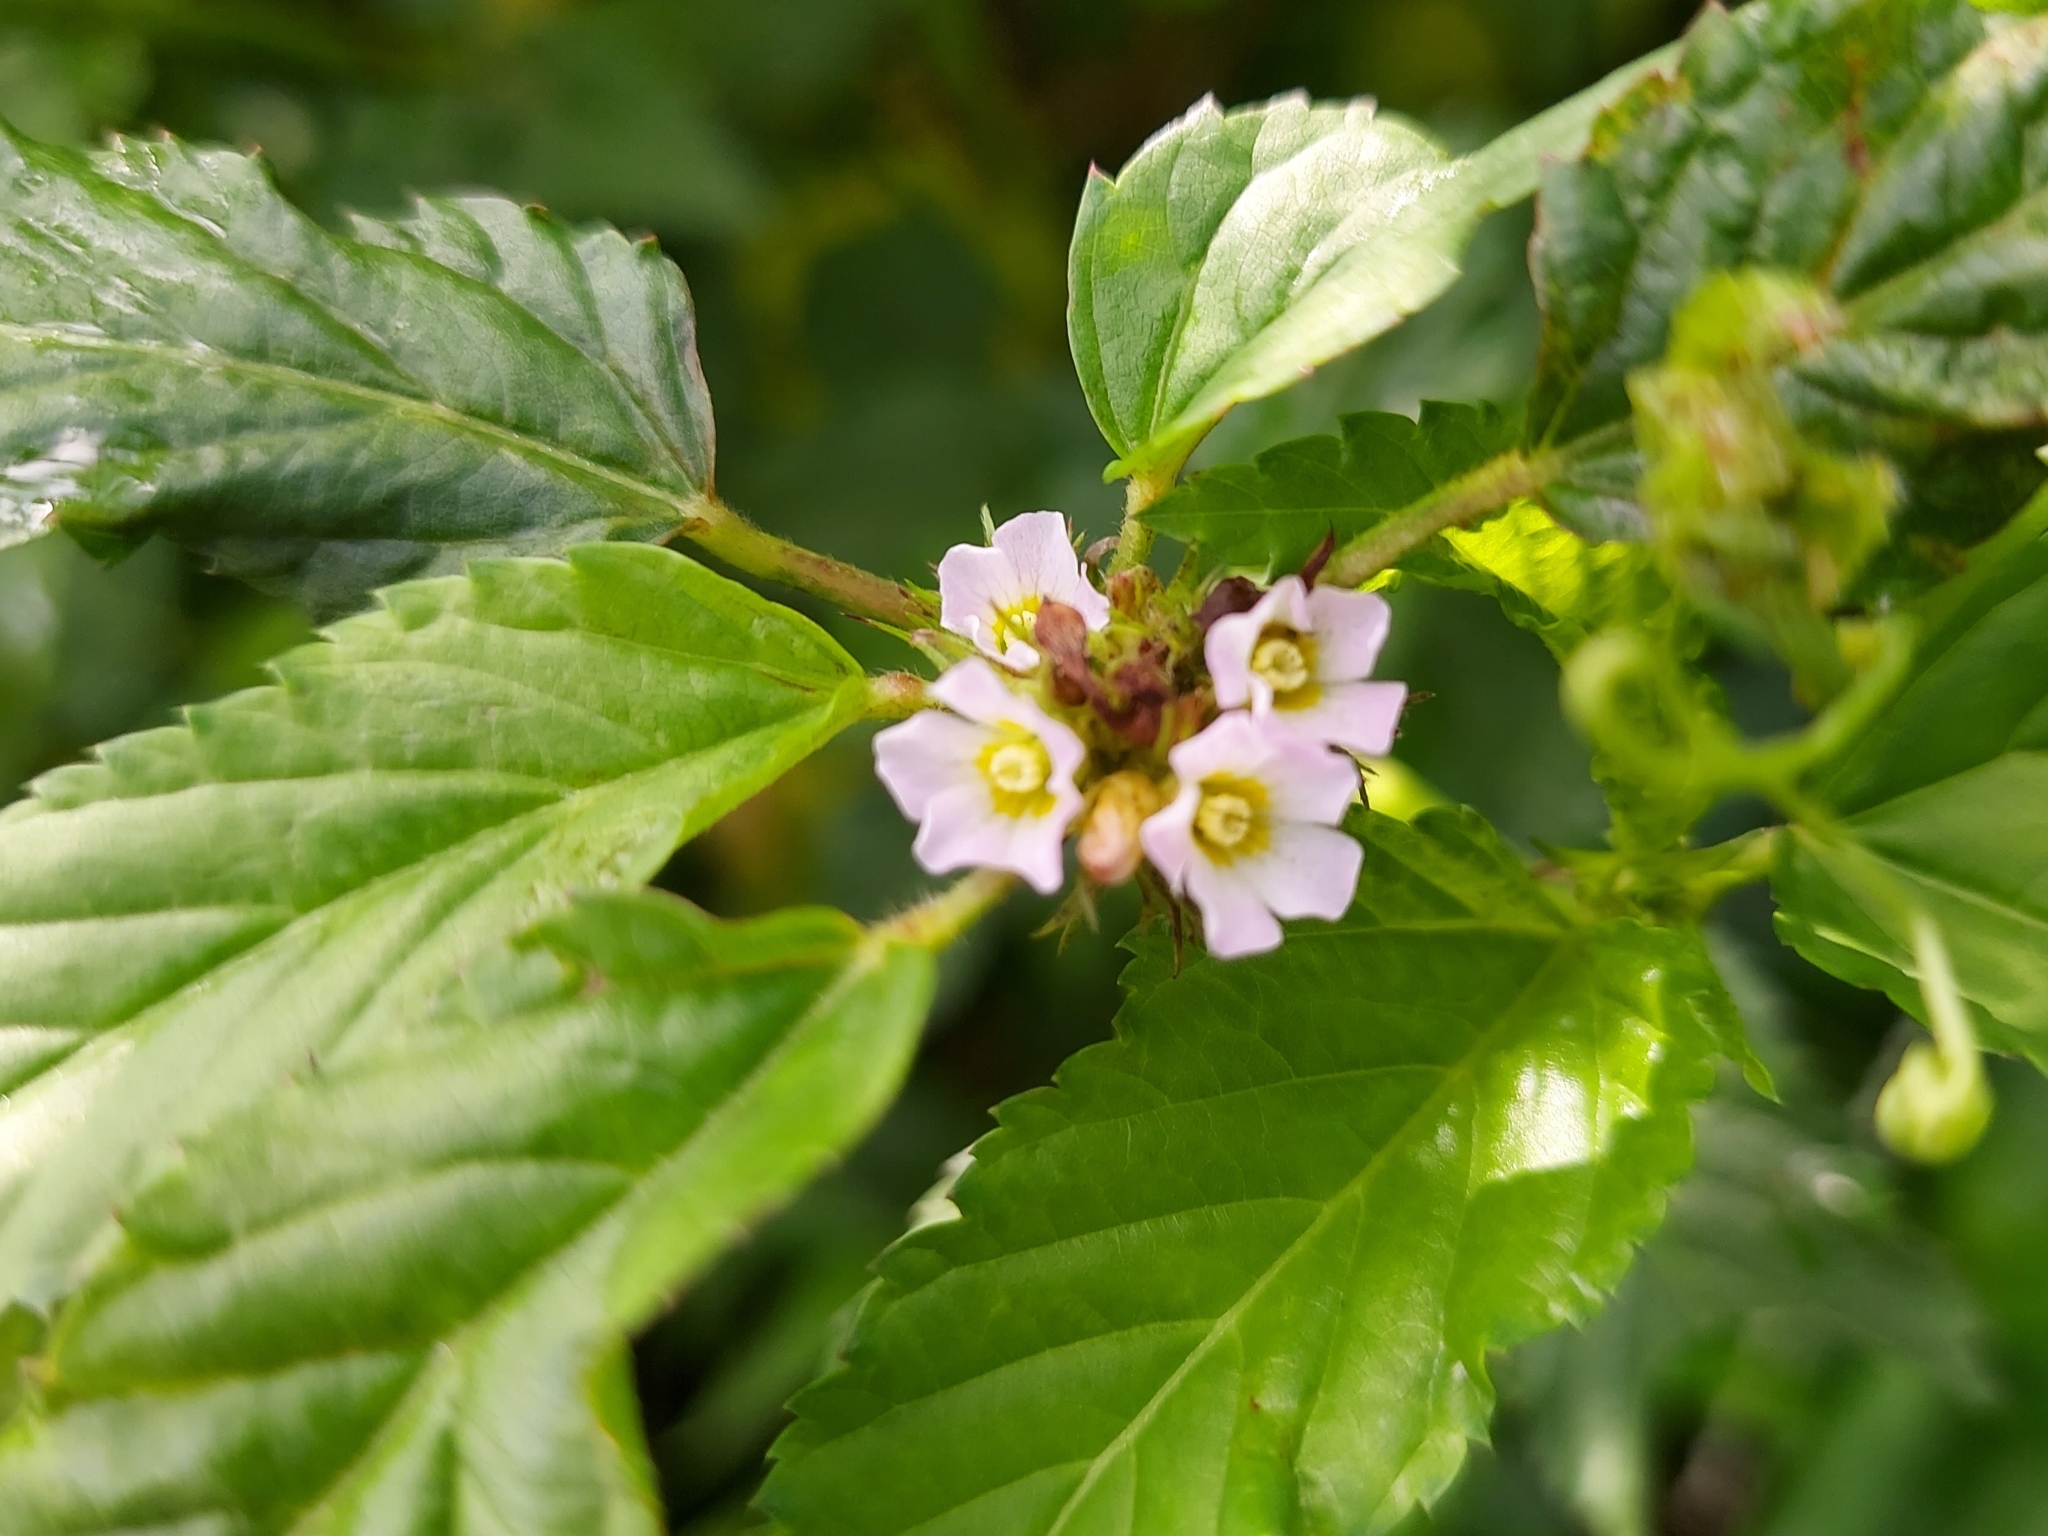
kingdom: Plantae
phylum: Tracheophyta
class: Magnoliopsida
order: Malvales
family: Malvaceae
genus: Melochia
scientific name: Melochia corchorifolia
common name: Chocolateweed
